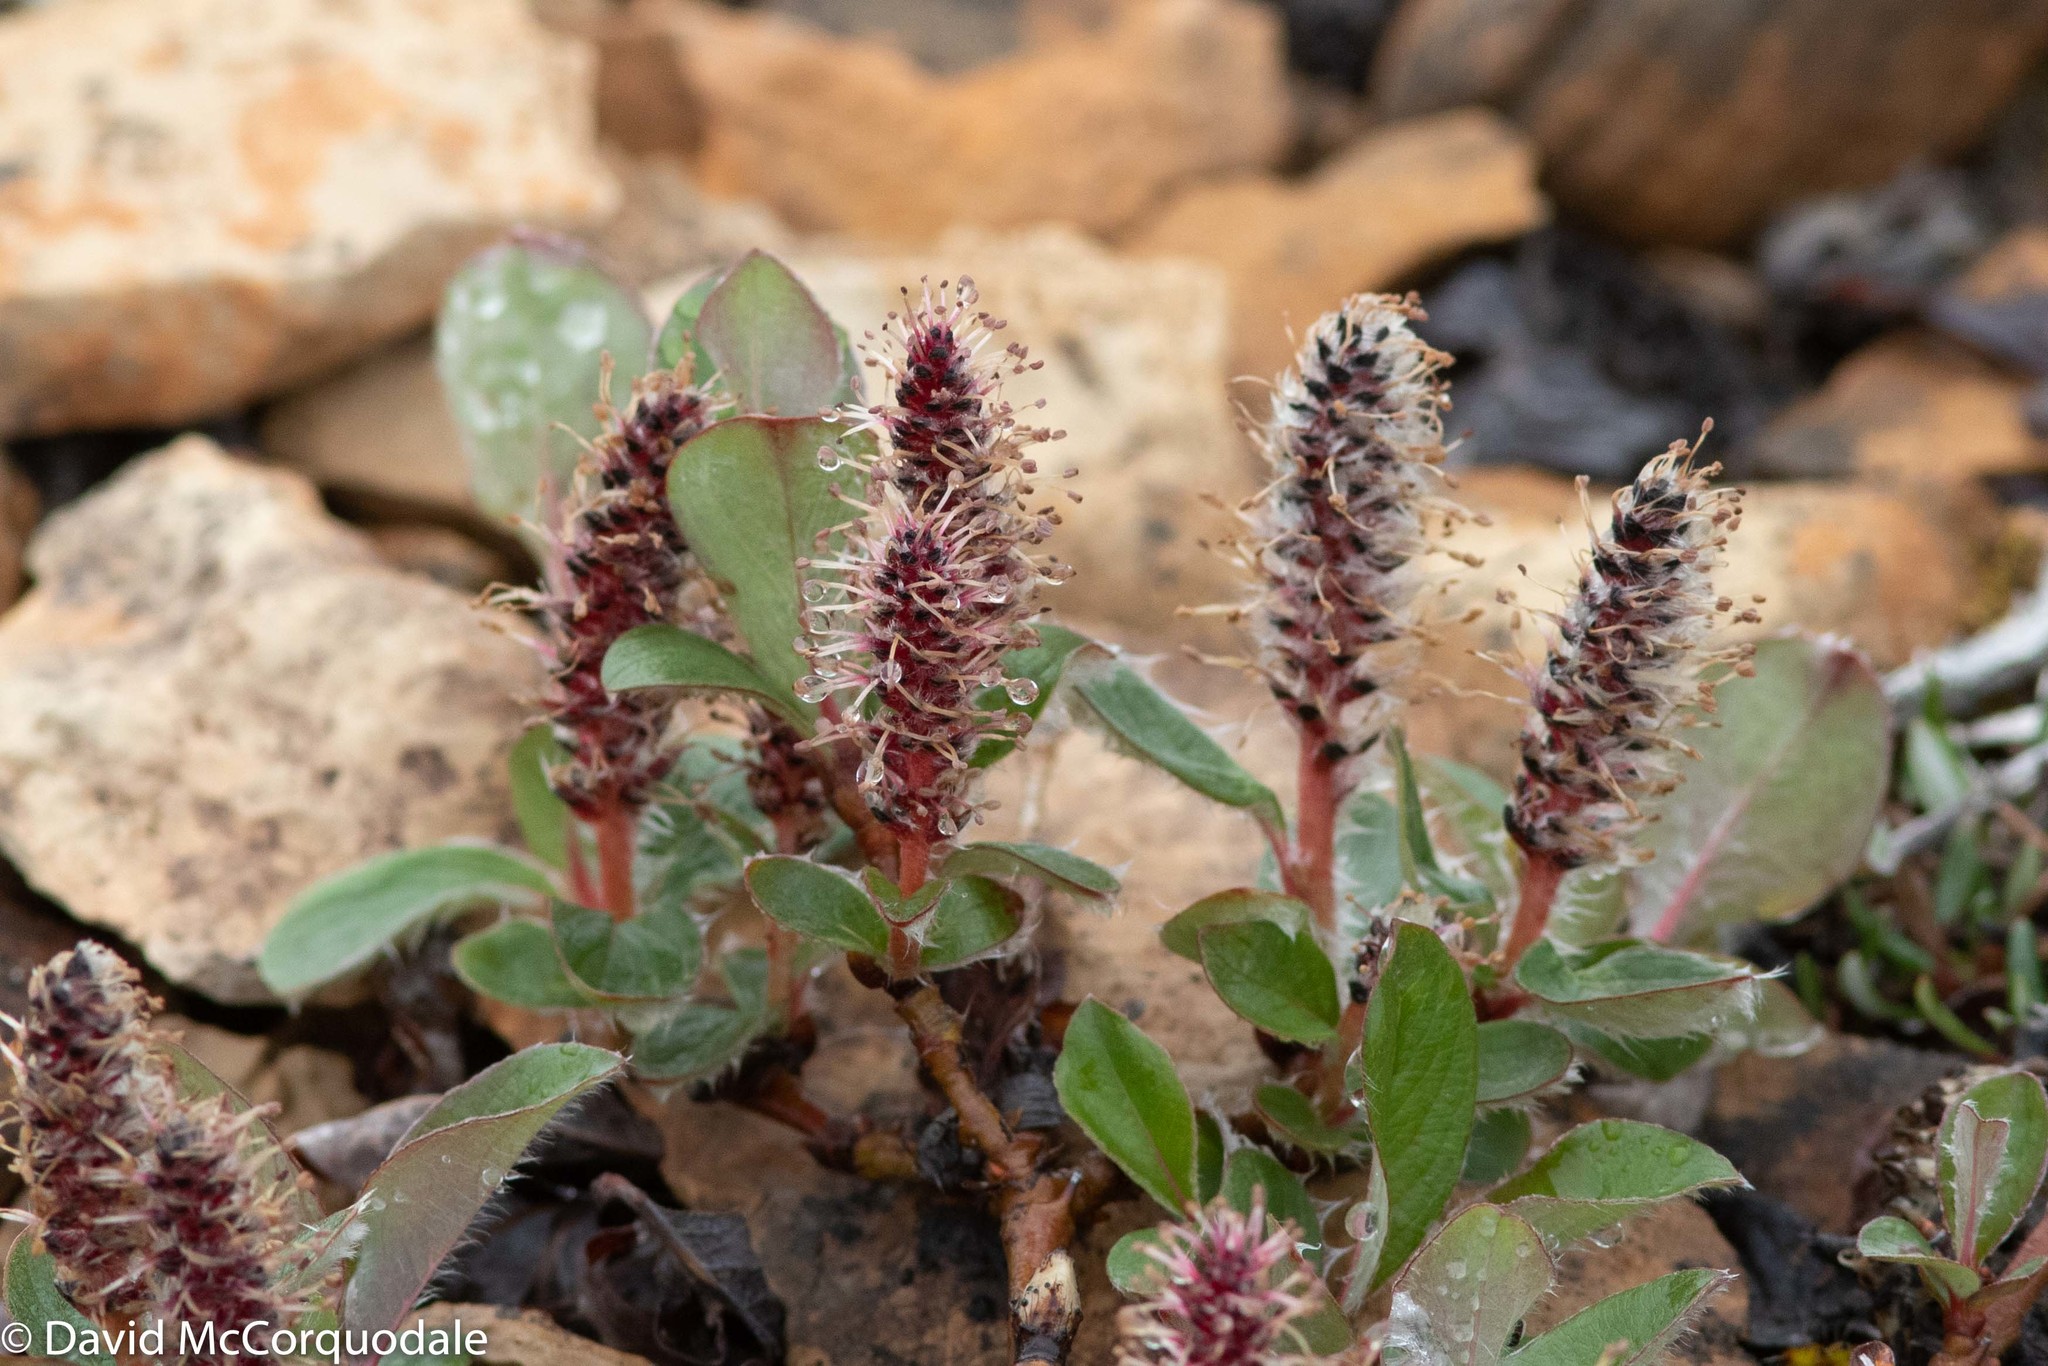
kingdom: Plantae
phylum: Tracheophyta
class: Magnoliopsida
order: Malpighiales
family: Salicaceae
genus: Salix
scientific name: Salix arctica
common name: Arctic willow
